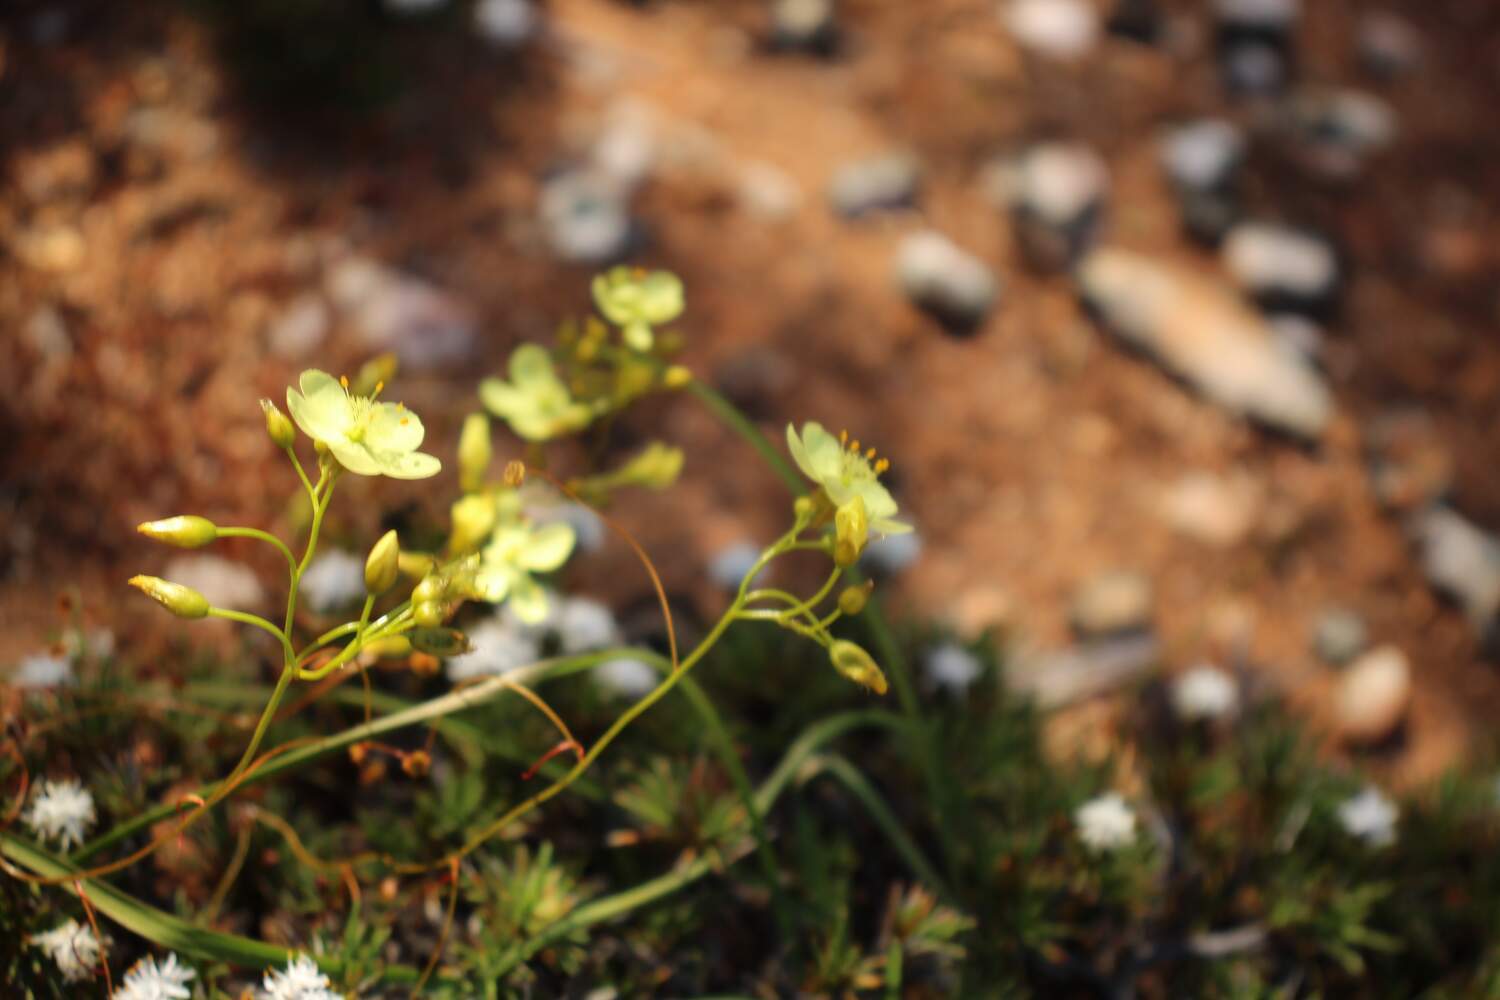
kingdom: Plantae
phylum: Tracheophyta
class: Magnoliopsida
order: Caryophyllales
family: Droseraceae
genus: Drosera
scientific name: Drosera moorei
